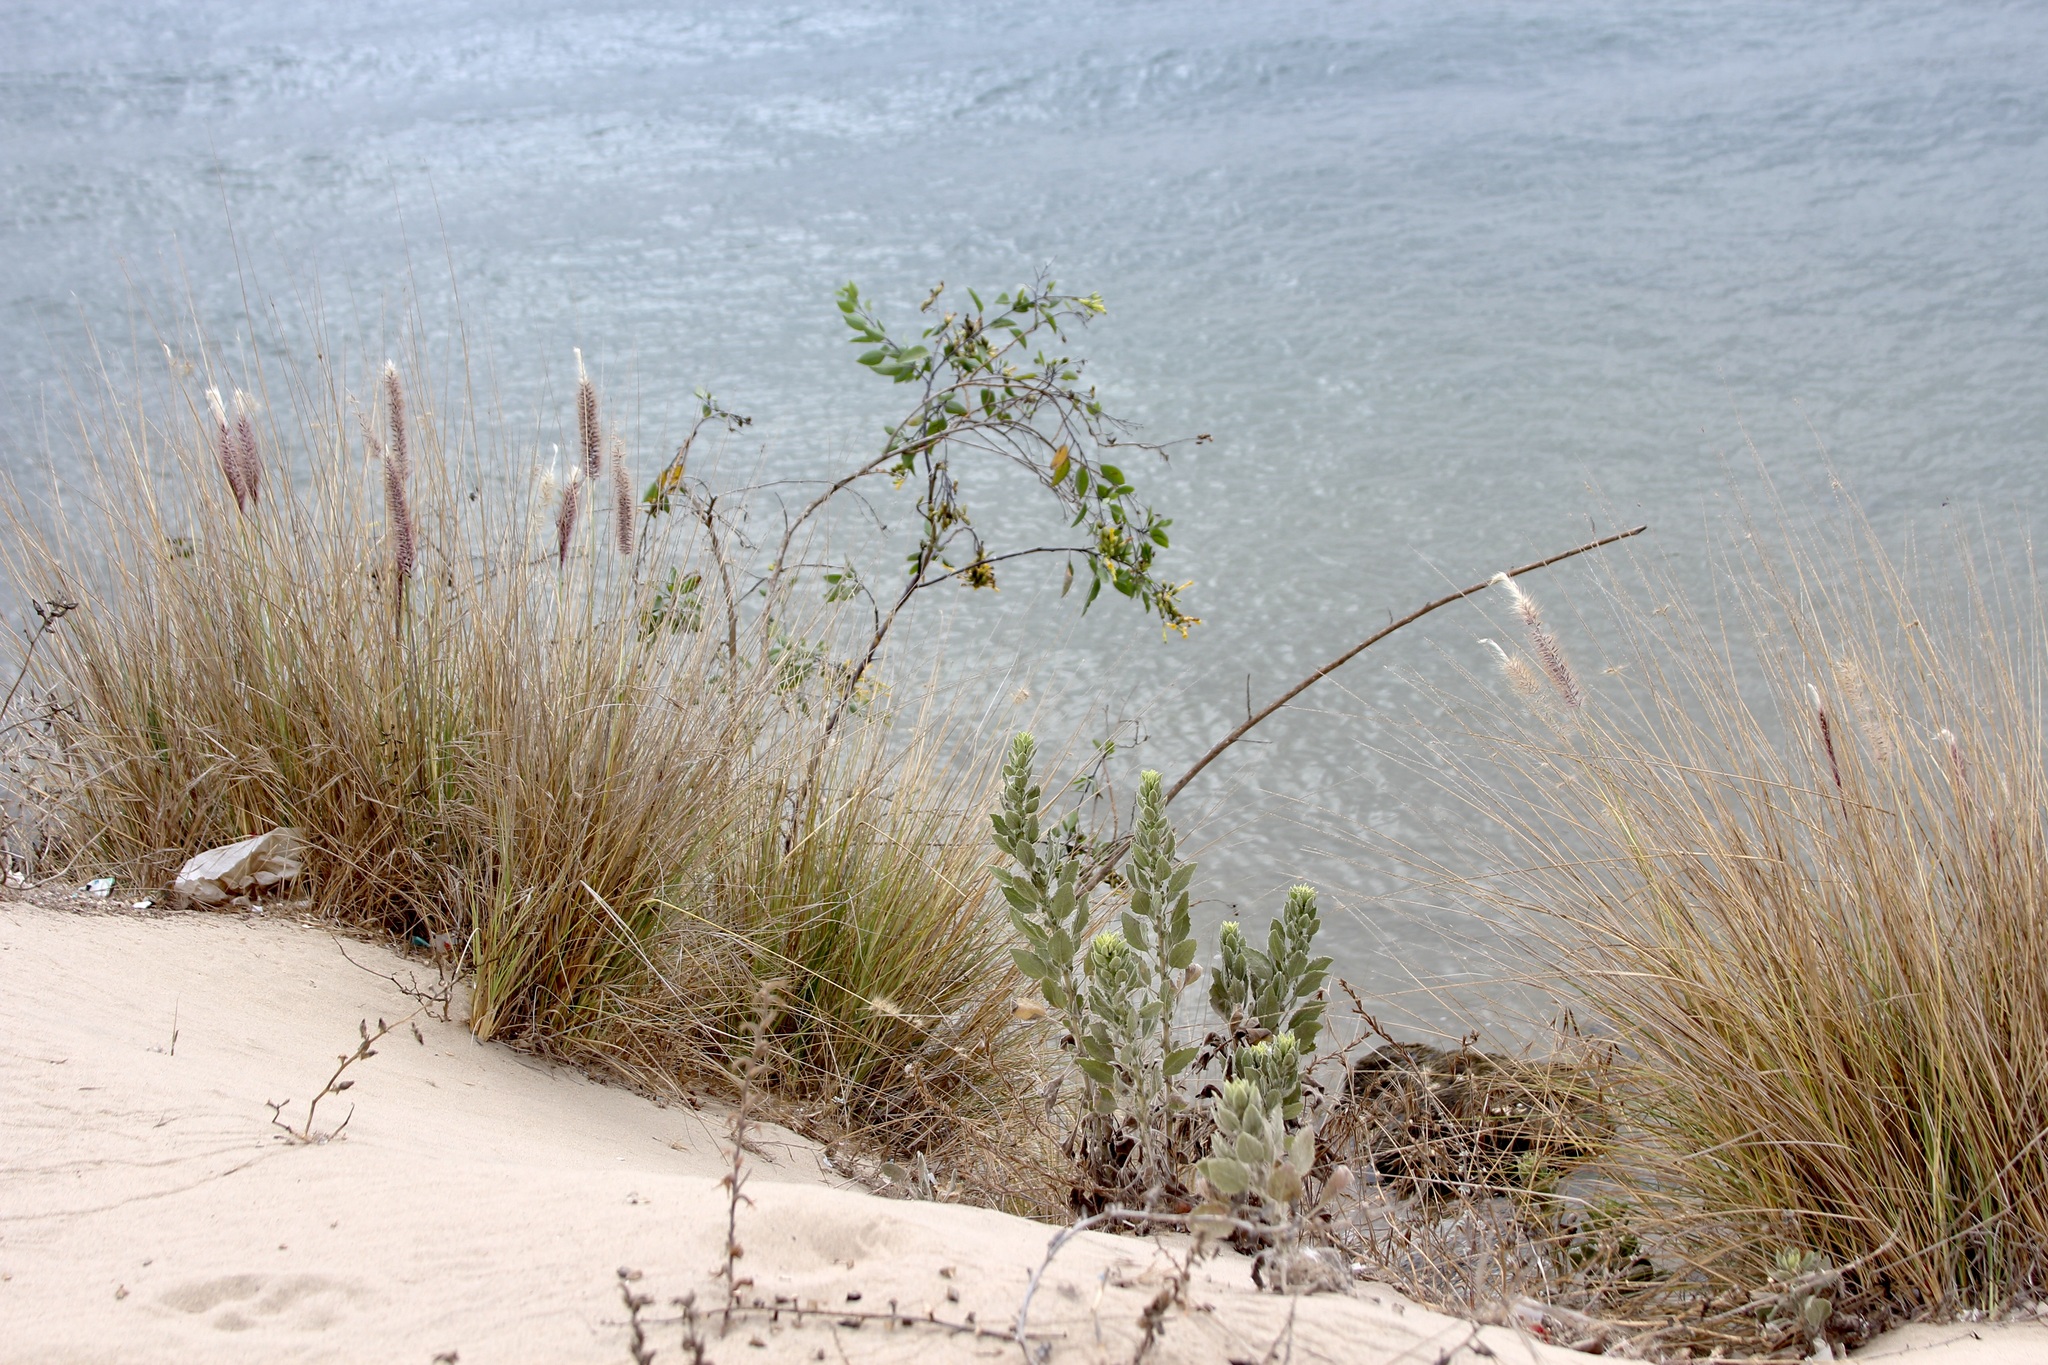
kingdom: Plantae
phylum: Tracheophyta
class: Liliopsida
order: Poales
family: Poaceae
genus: Cenchrus
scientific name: Cenchrus setaceus
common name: Crimson fountaingrass
